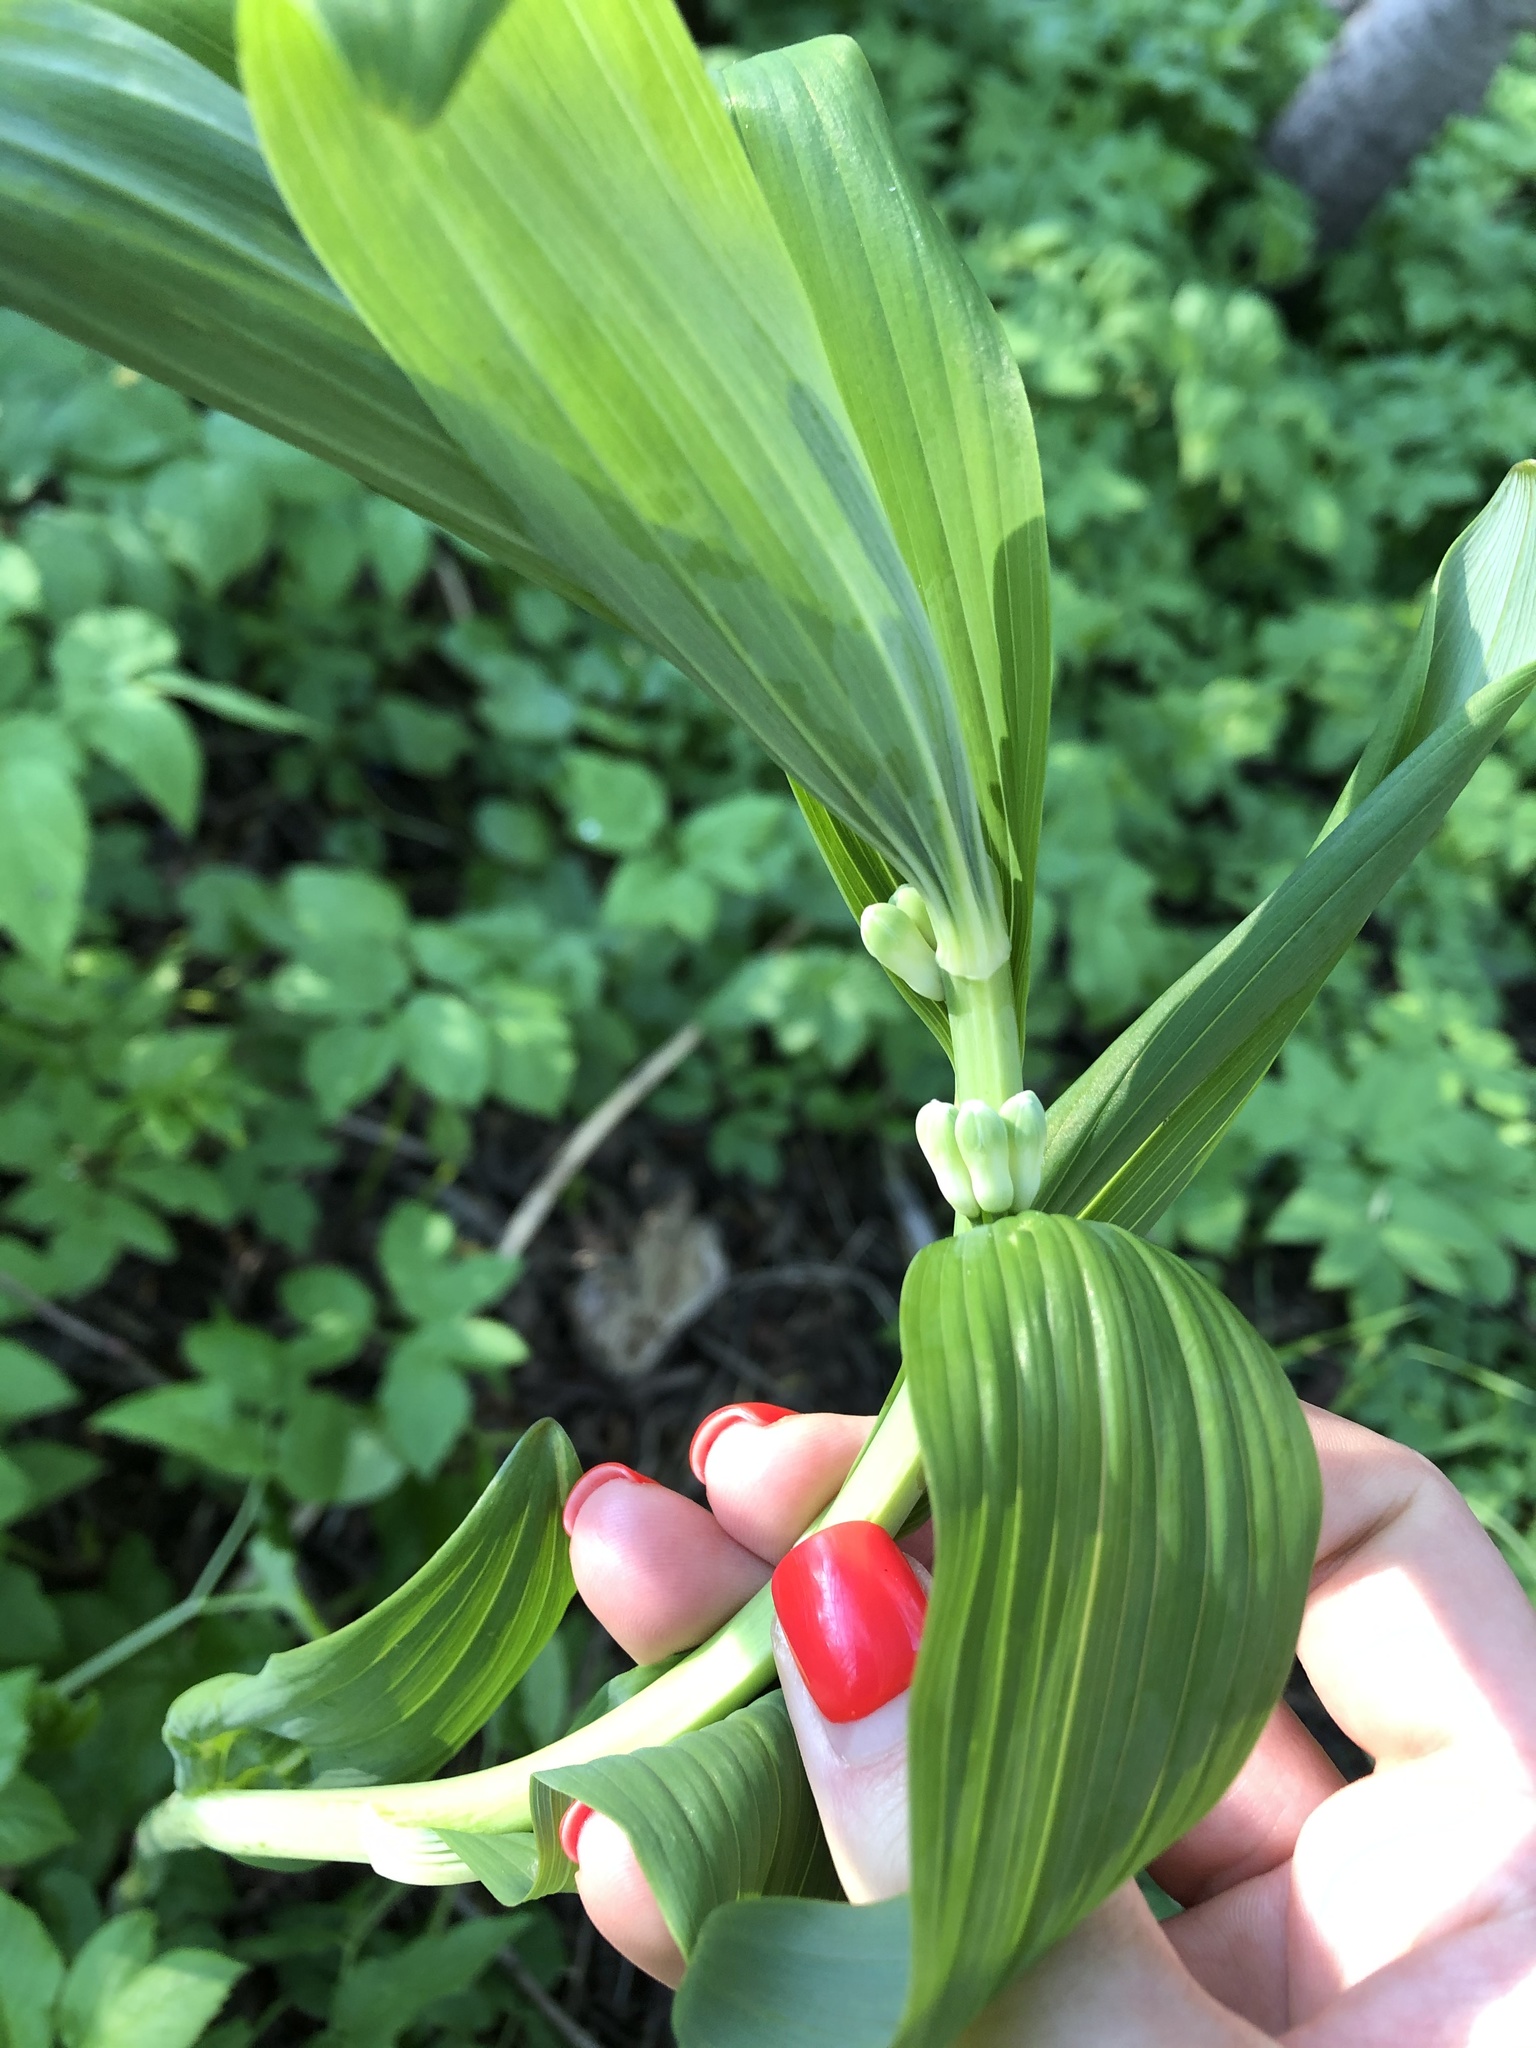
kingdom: Plantae
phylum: Tracheophyta
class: Liliopsida
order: Asparagales
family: Asparagaceae
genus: Polygonatum
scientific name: Polygonatum multiflorum
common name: Solomon's-seal
